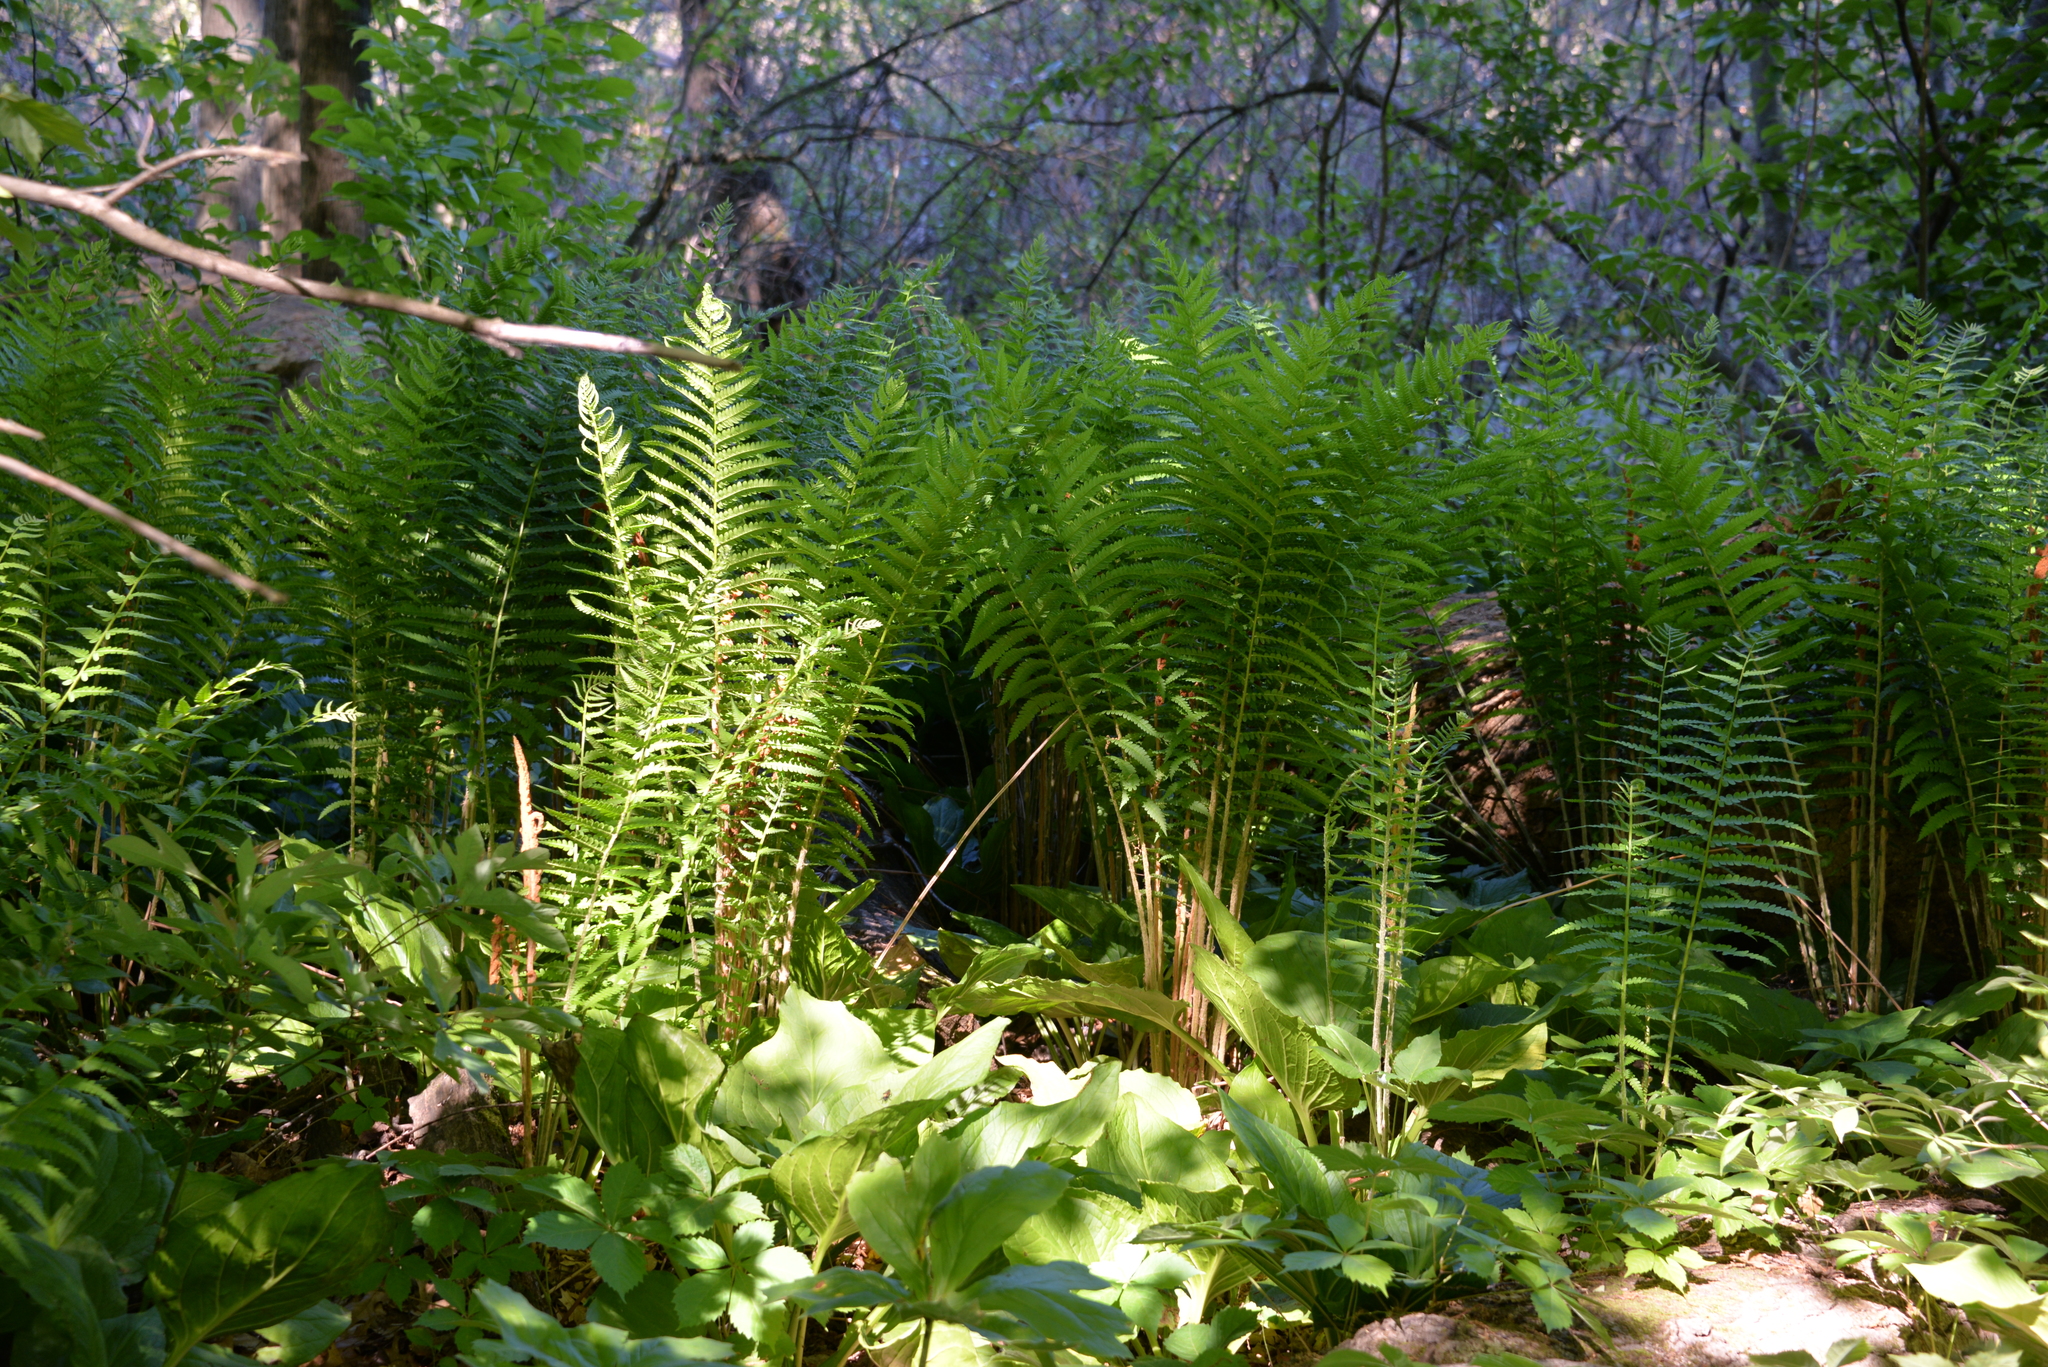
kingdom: Plantae
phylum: Tracheophyta
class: Polypodiopsida
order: Osmundales
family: Osmundaceae
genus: Osmundastrum
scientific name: Osmundastrum cinnamomeum
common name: Cinnamon fern
